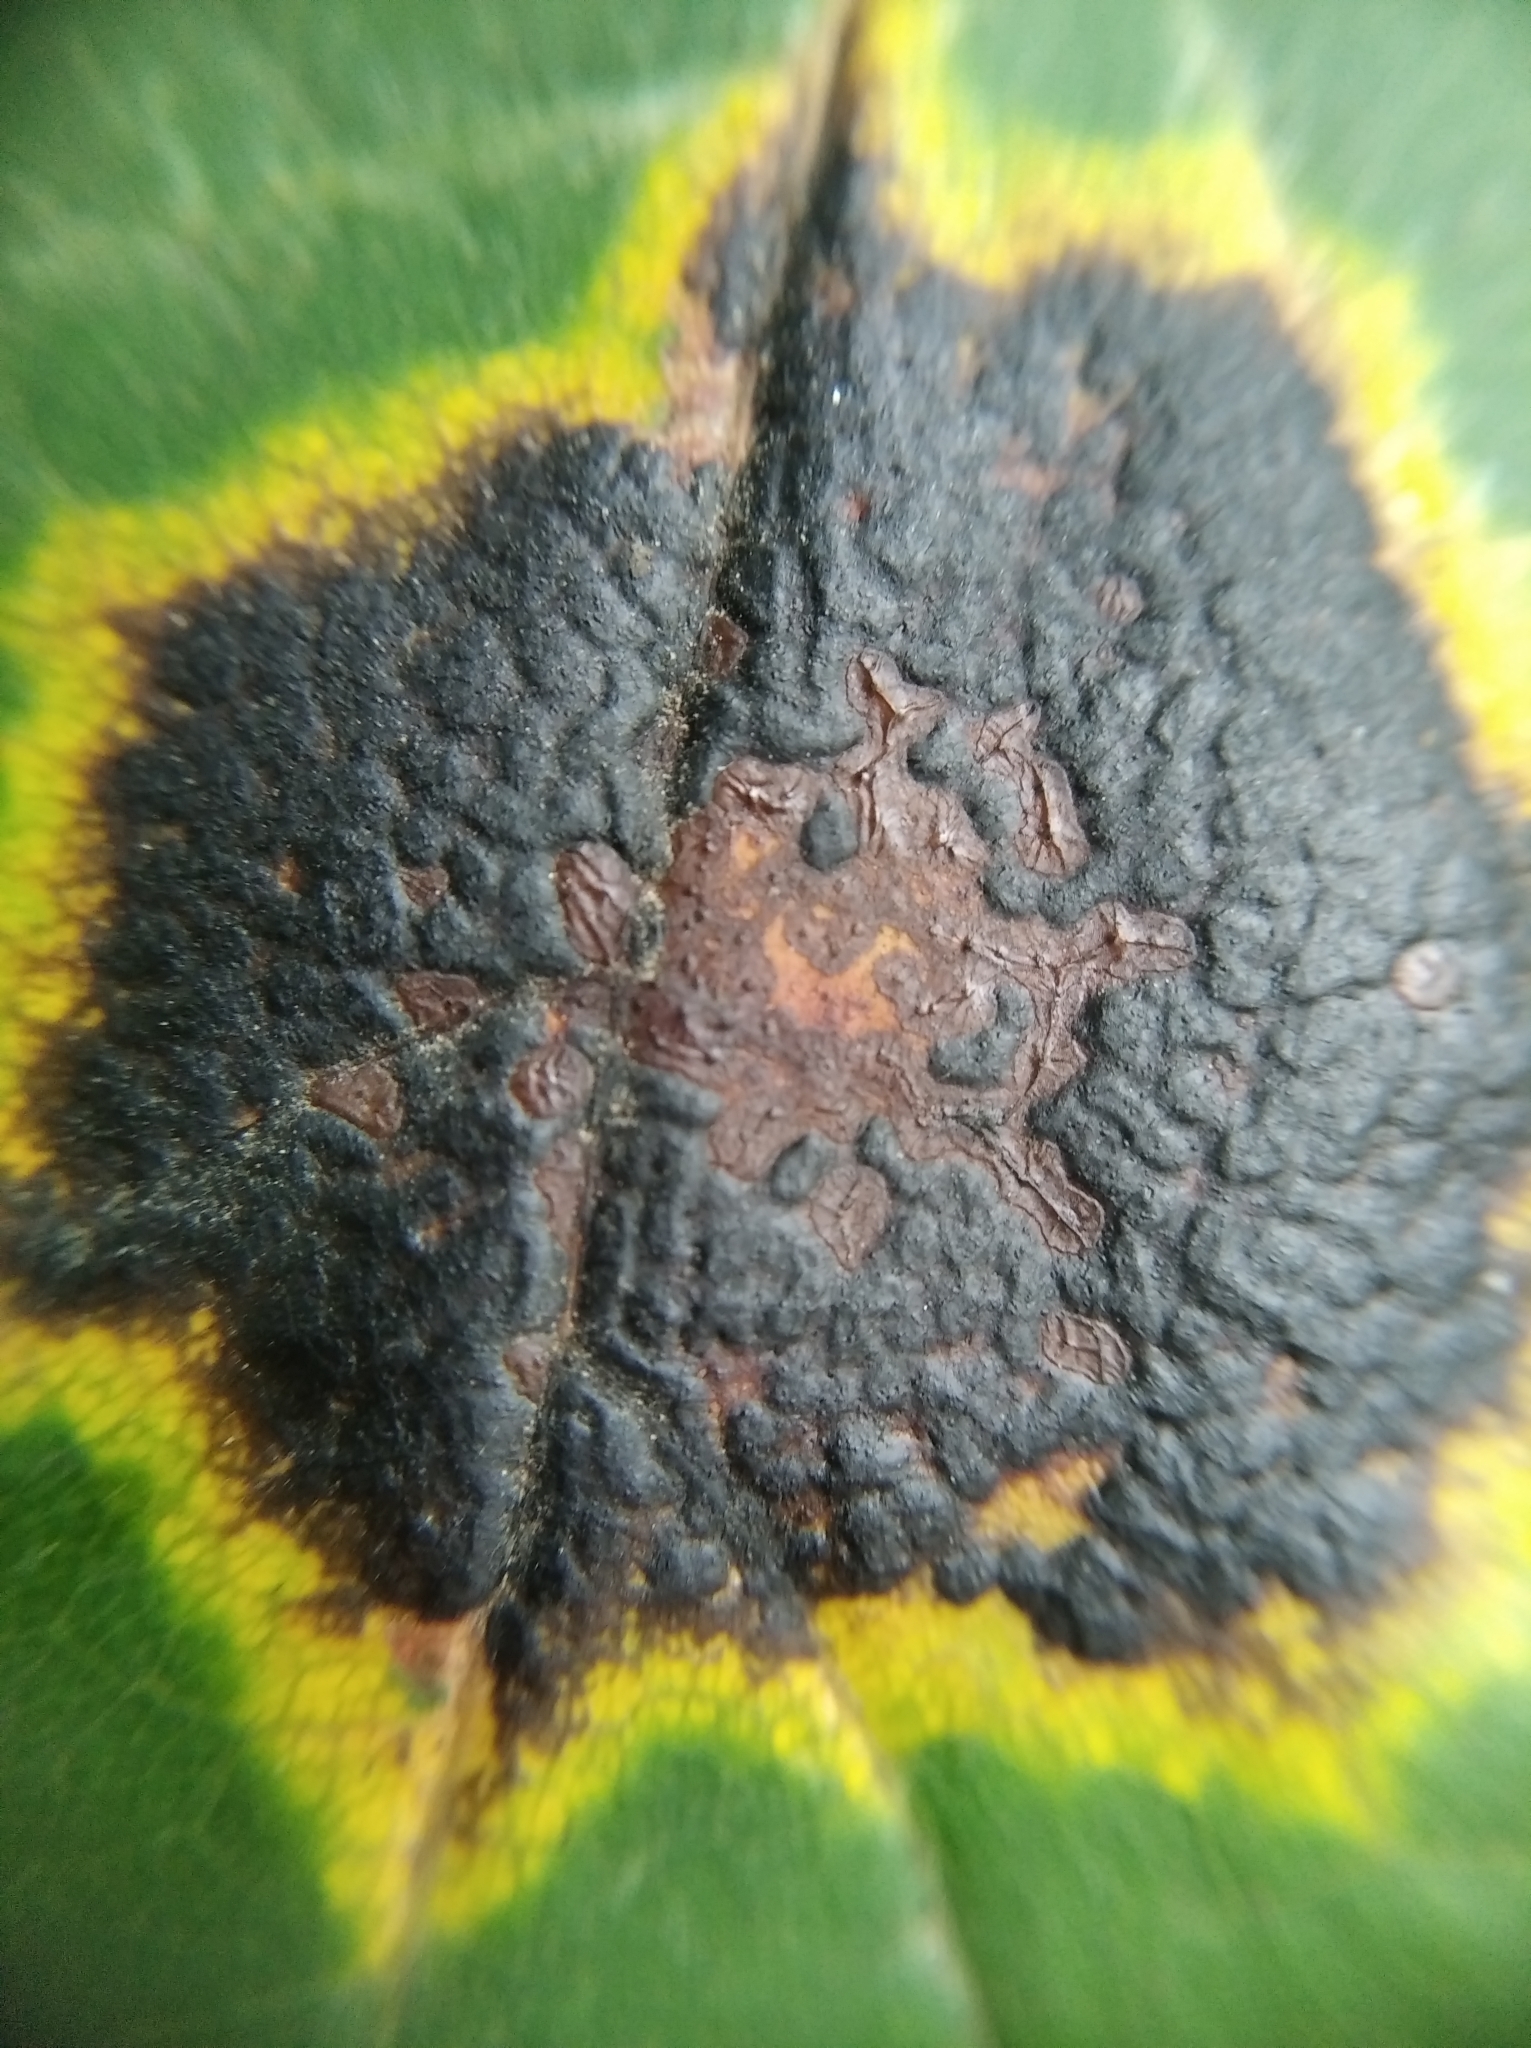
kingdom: Fungi
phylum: Ascomycota
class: Leotiomycetes
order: Rhytismatales
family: Rhytismataceae
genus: Rhytisma
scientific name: Rhytisma acerinum
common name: European tar spot
